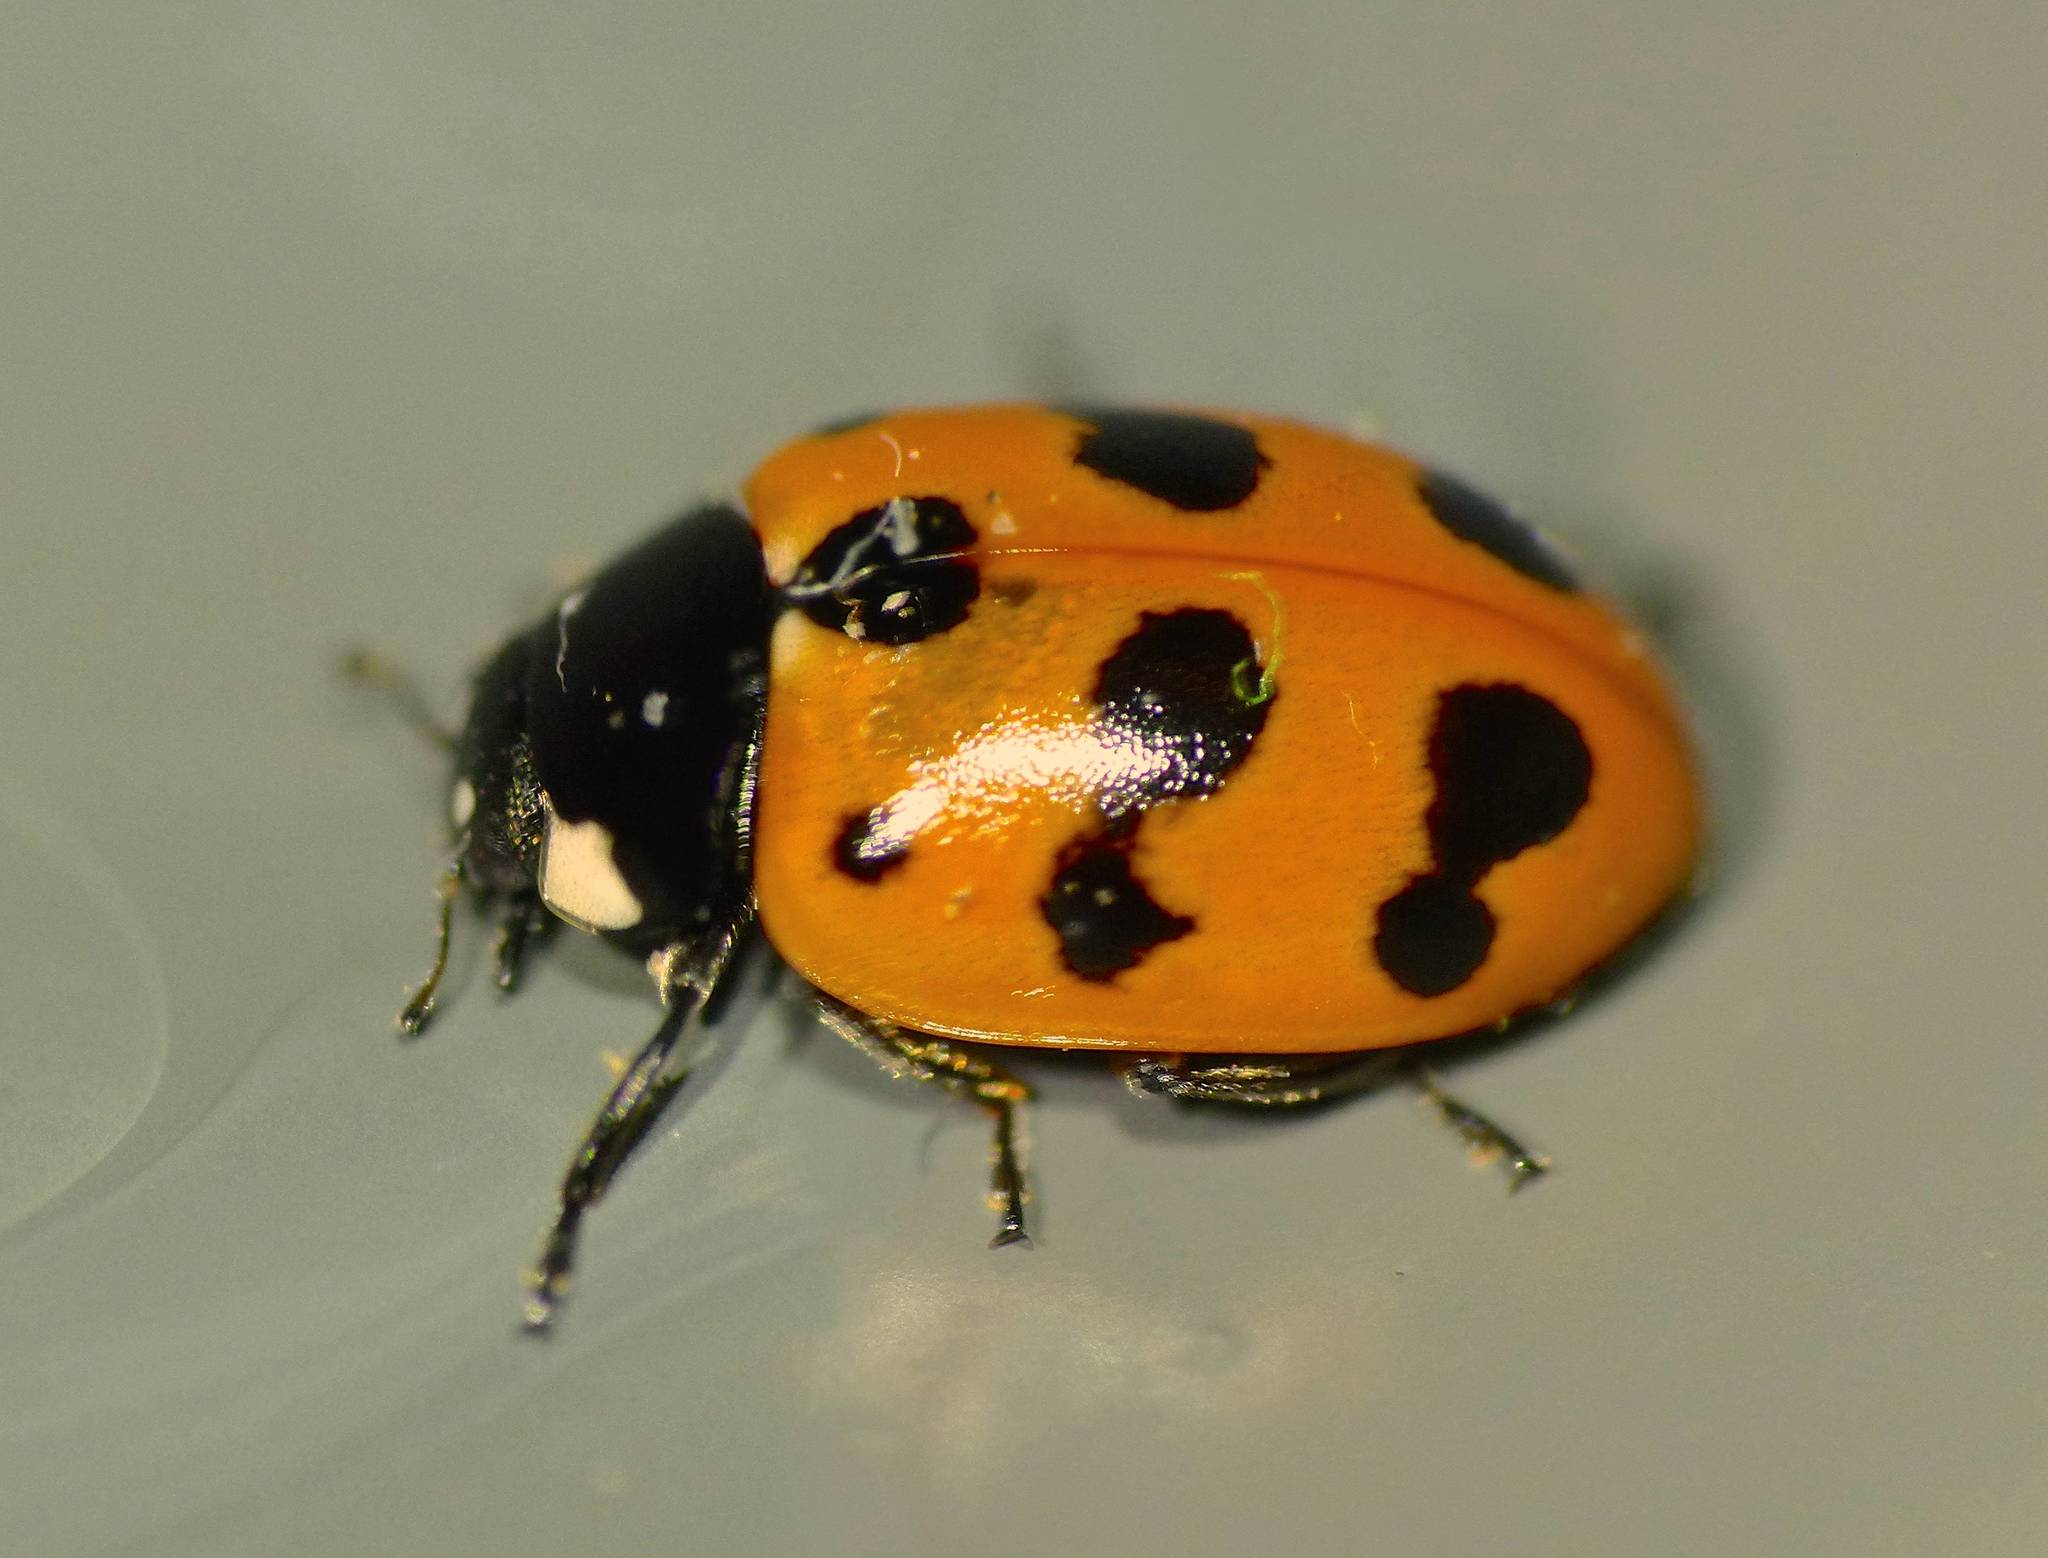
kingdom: Animalia
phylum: Arthropoda
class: Insecta
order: Coleoptera
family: Coccinellidae
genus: Coccinella
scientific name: Coccinella undecimpunctata
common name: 11-spot ladybird
